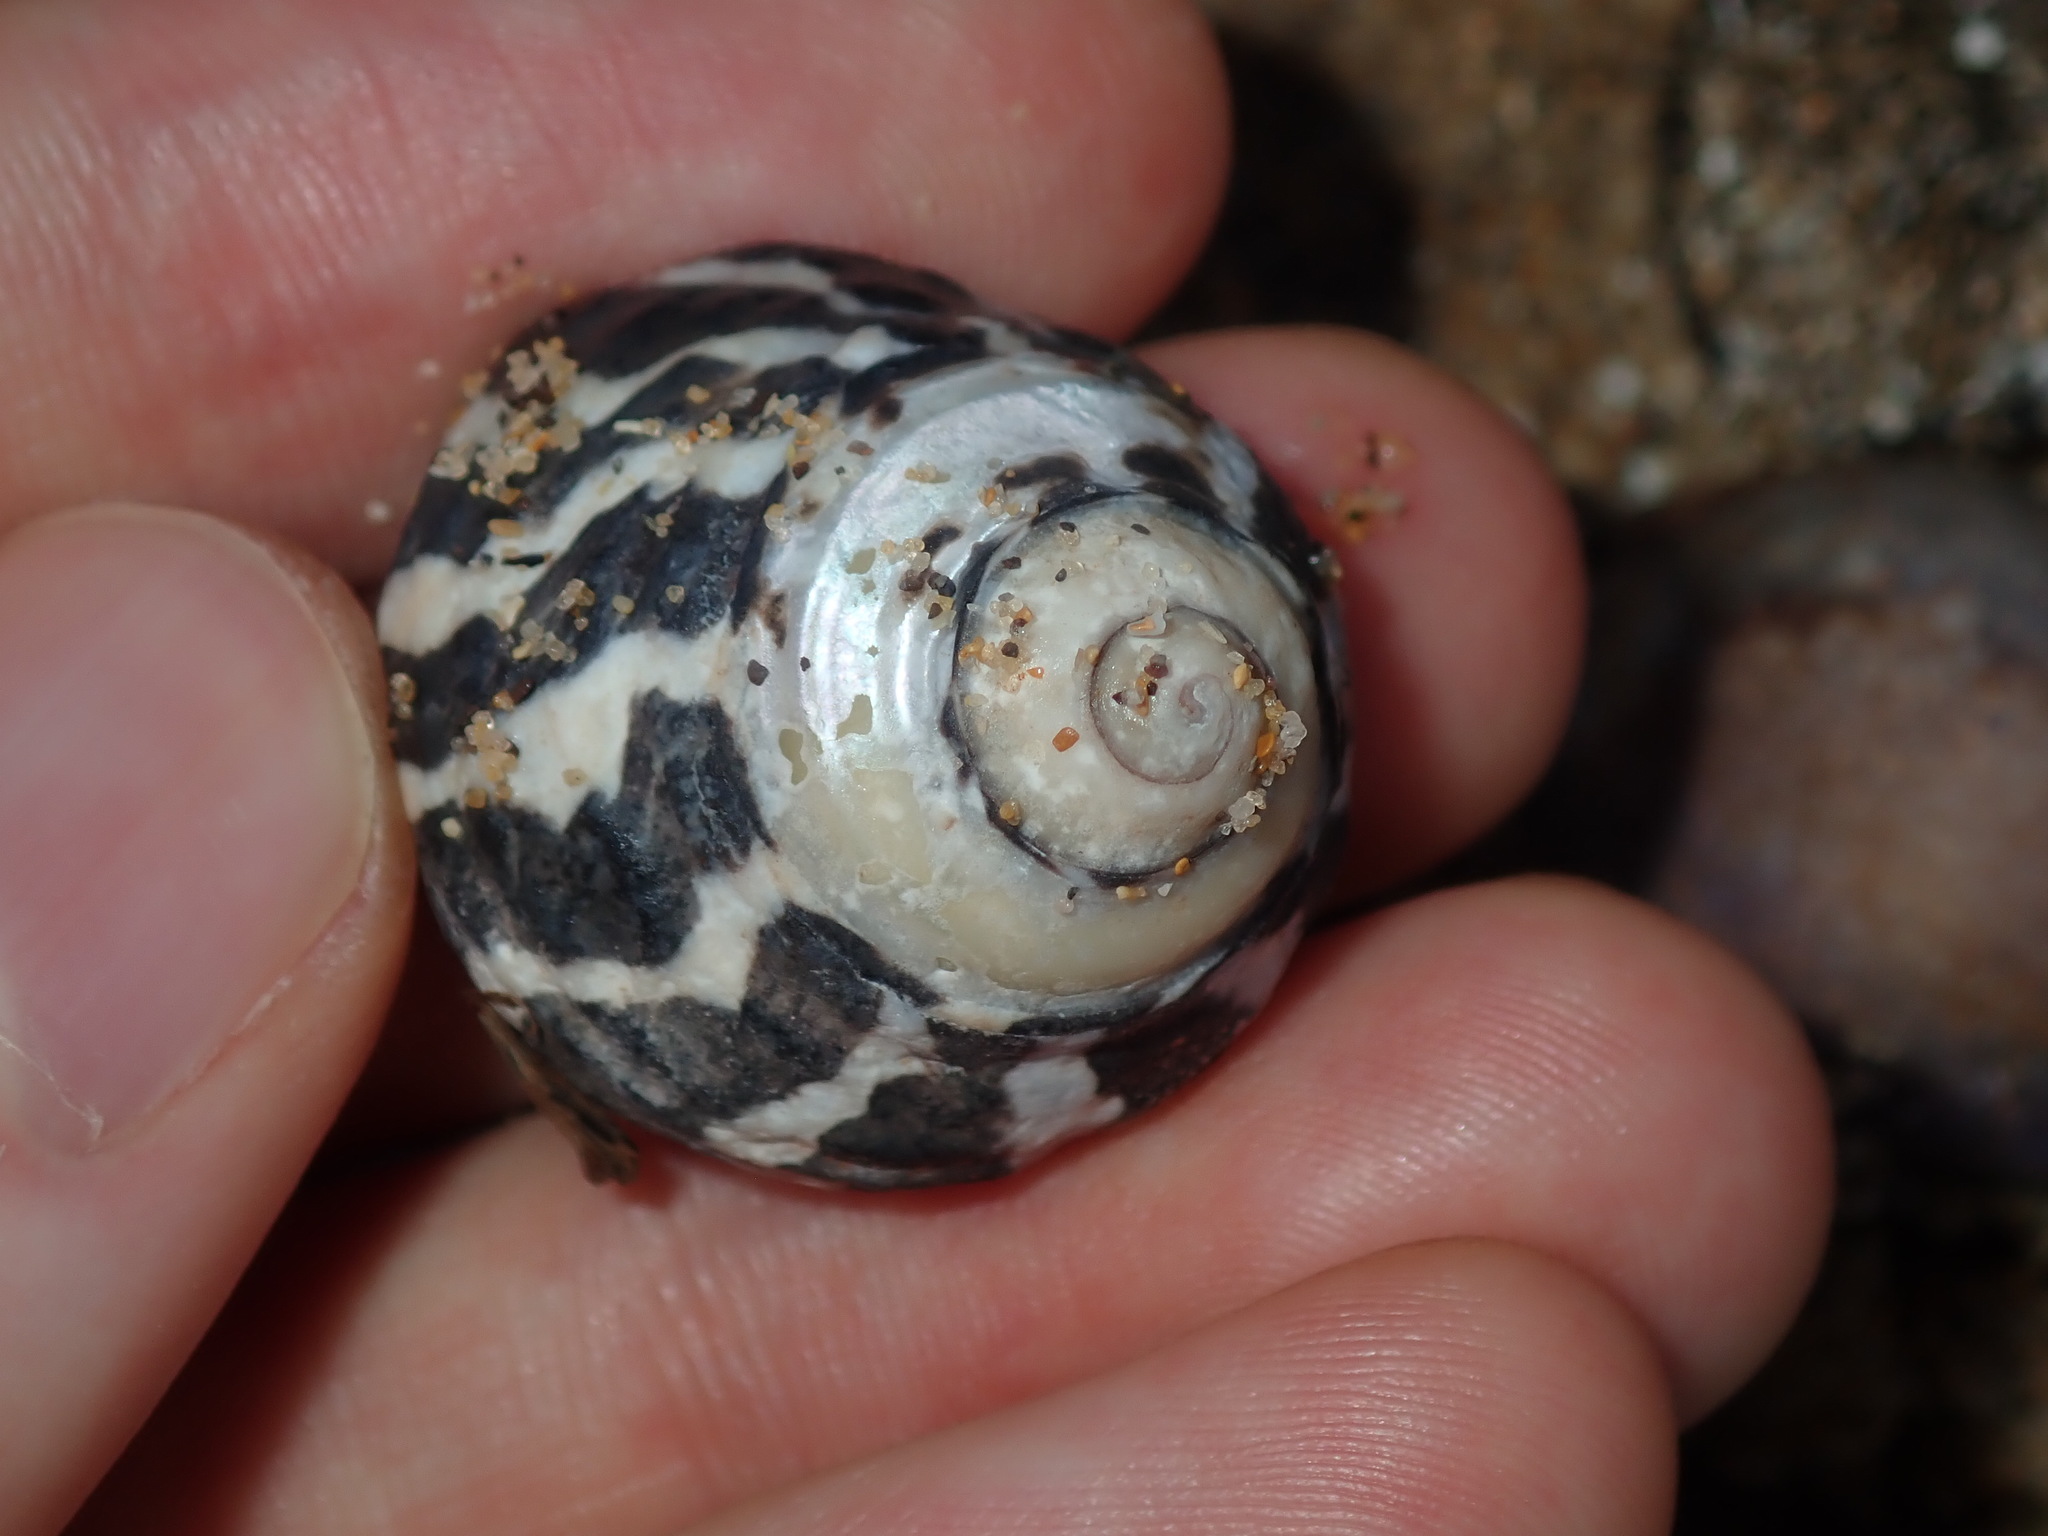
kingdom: Animalia
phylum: Mollusca
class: Gastropoda
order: Trochida
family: Trochidae
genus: Austrocochlea
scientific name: Austrocochlea porcata
